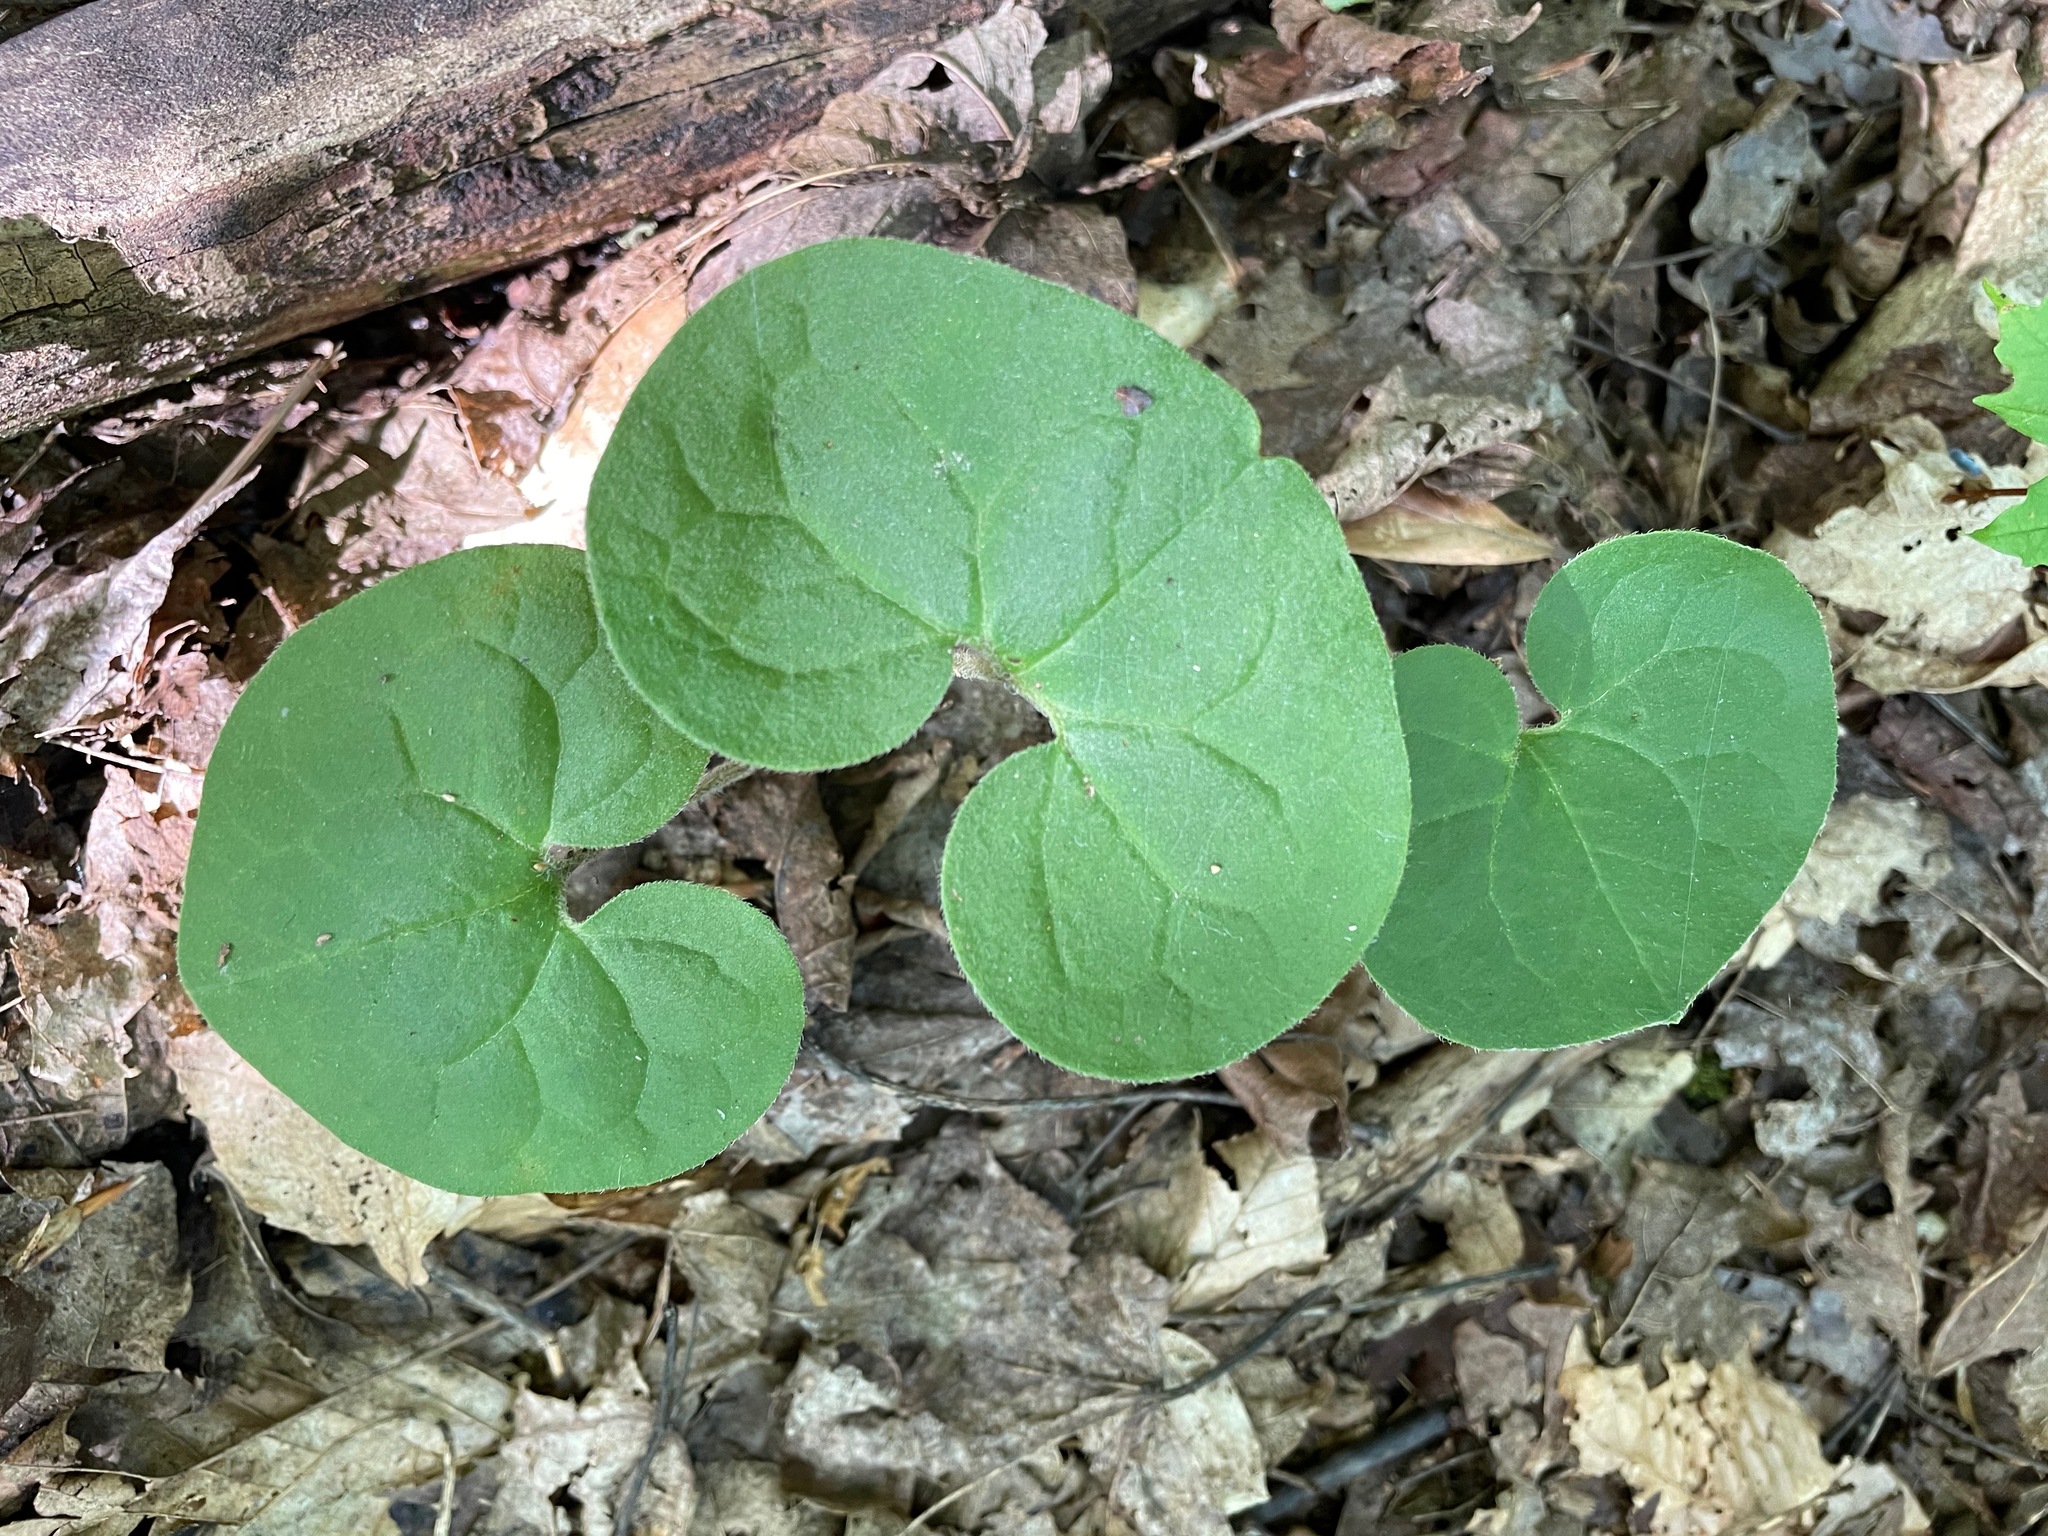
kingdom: Plantae
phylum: Tracheophyta
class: Magnoliopsida
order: Piperales
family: Aristolochiaceae
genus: Asarum
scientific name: Asarum canadense
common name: Wild ginger
